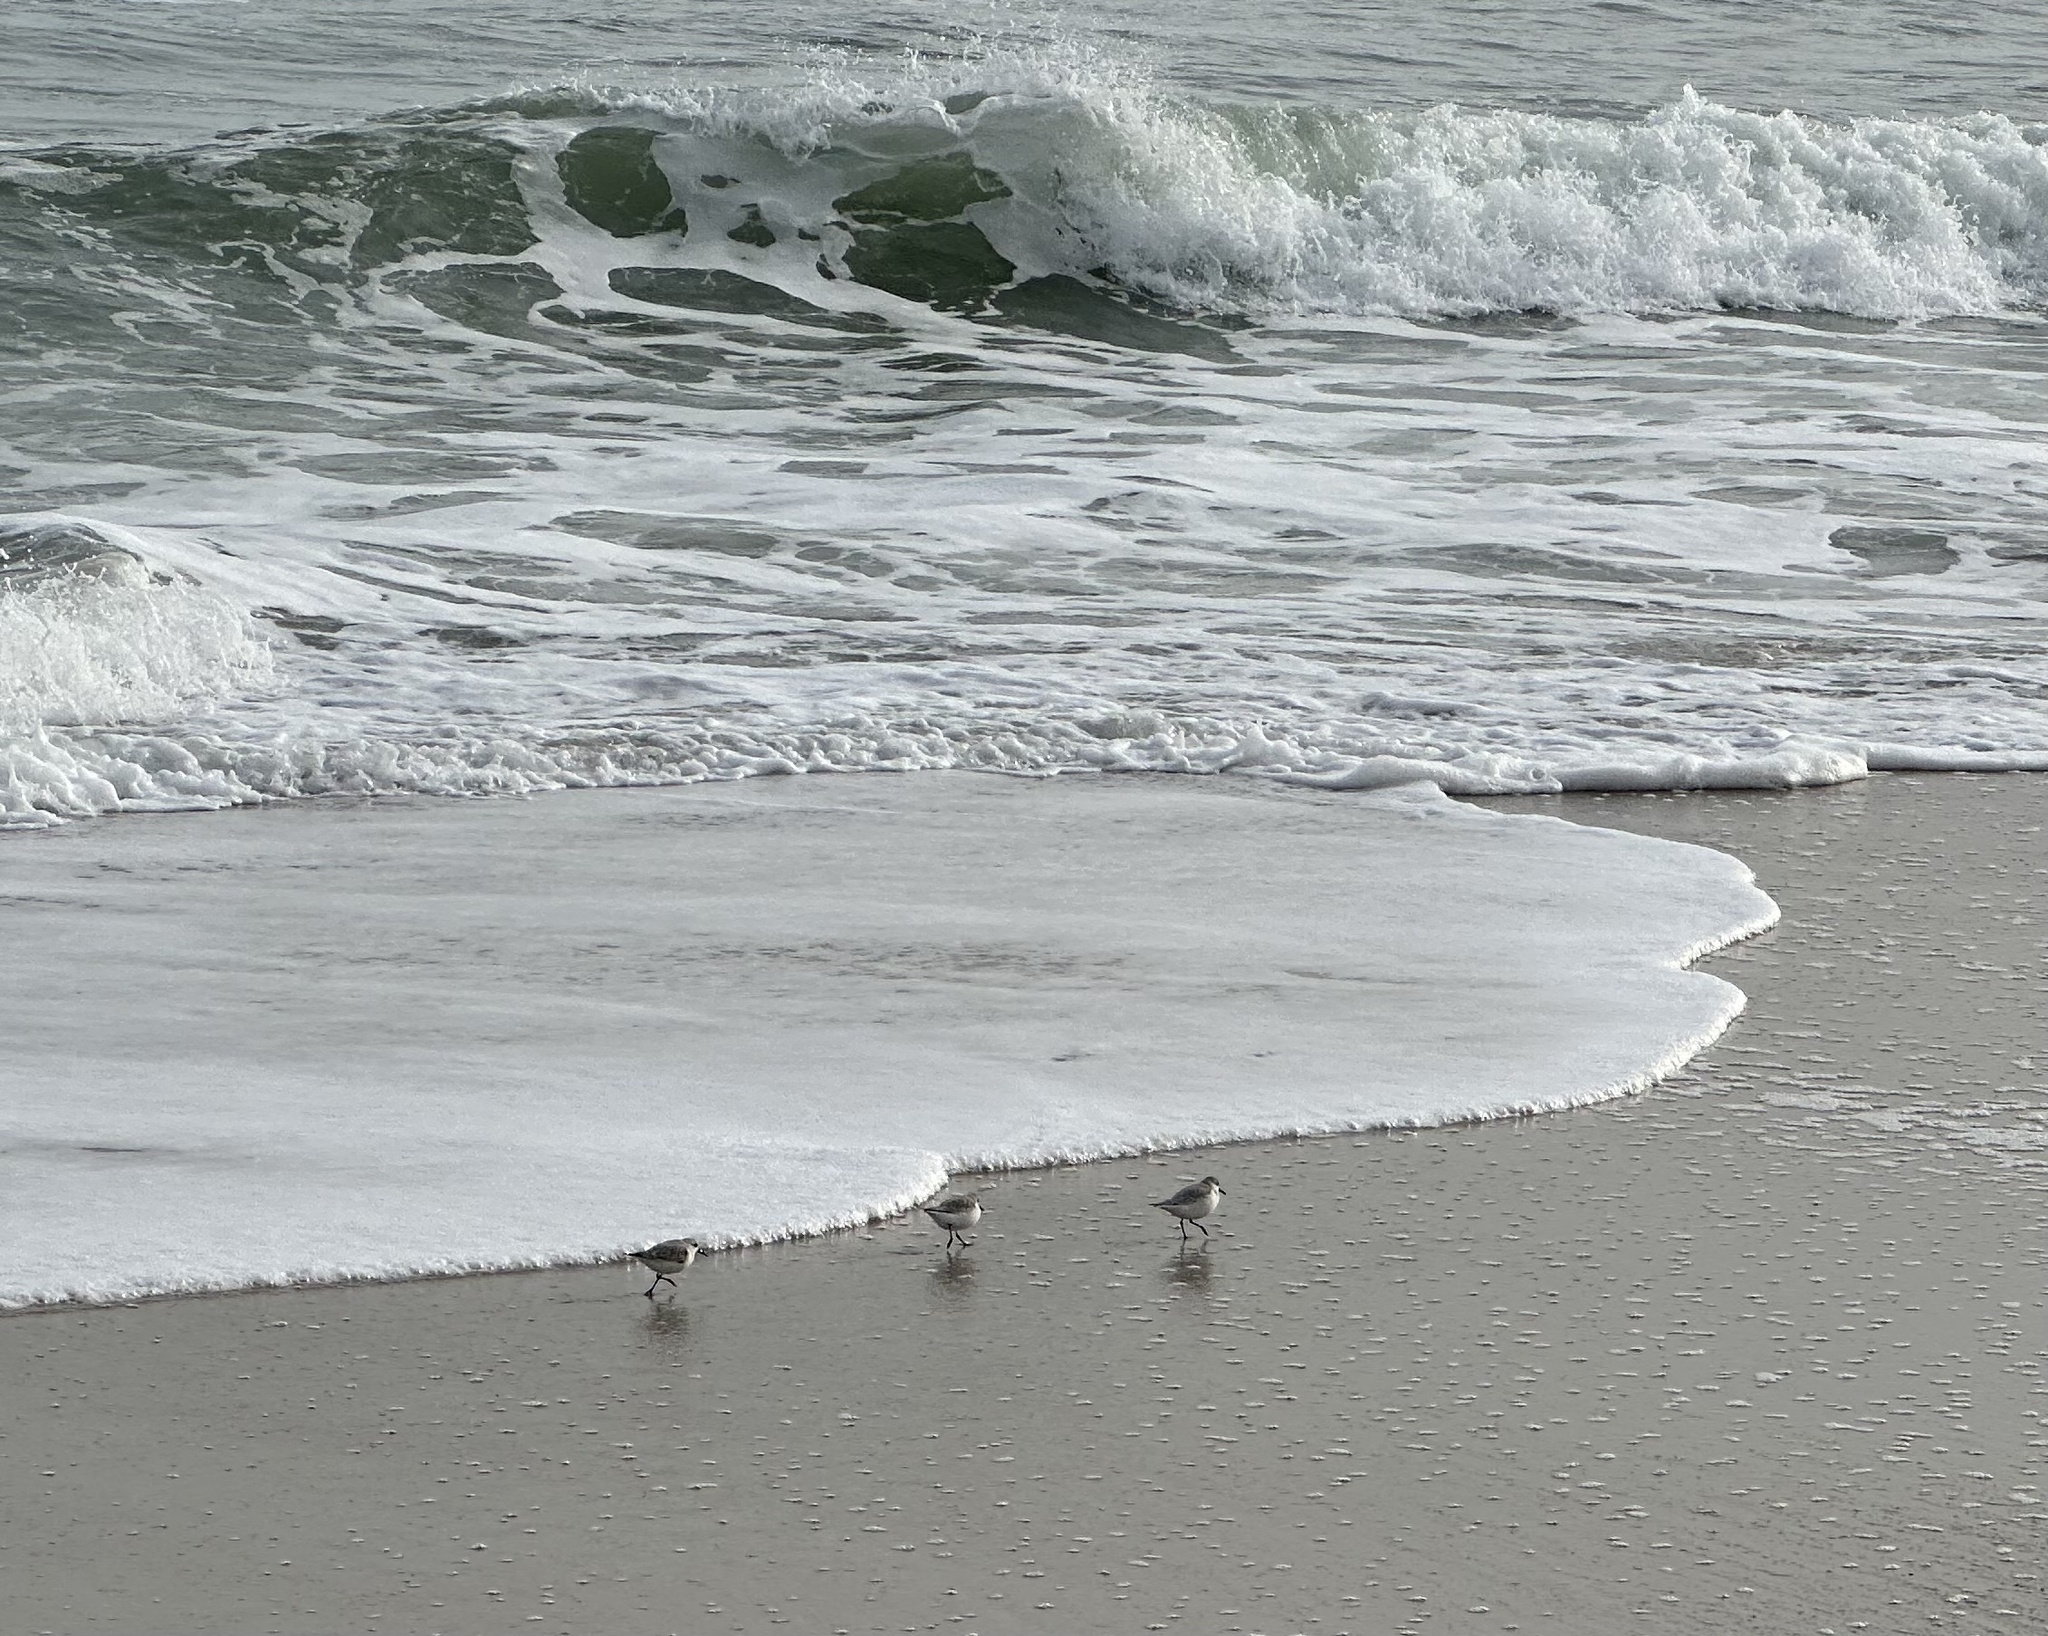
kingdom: Animalia
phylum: Chordata
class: Aves
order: Charadriiformes
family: Scolopacidae
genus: Calidris
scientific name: Calidris alba
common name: Sanderling
